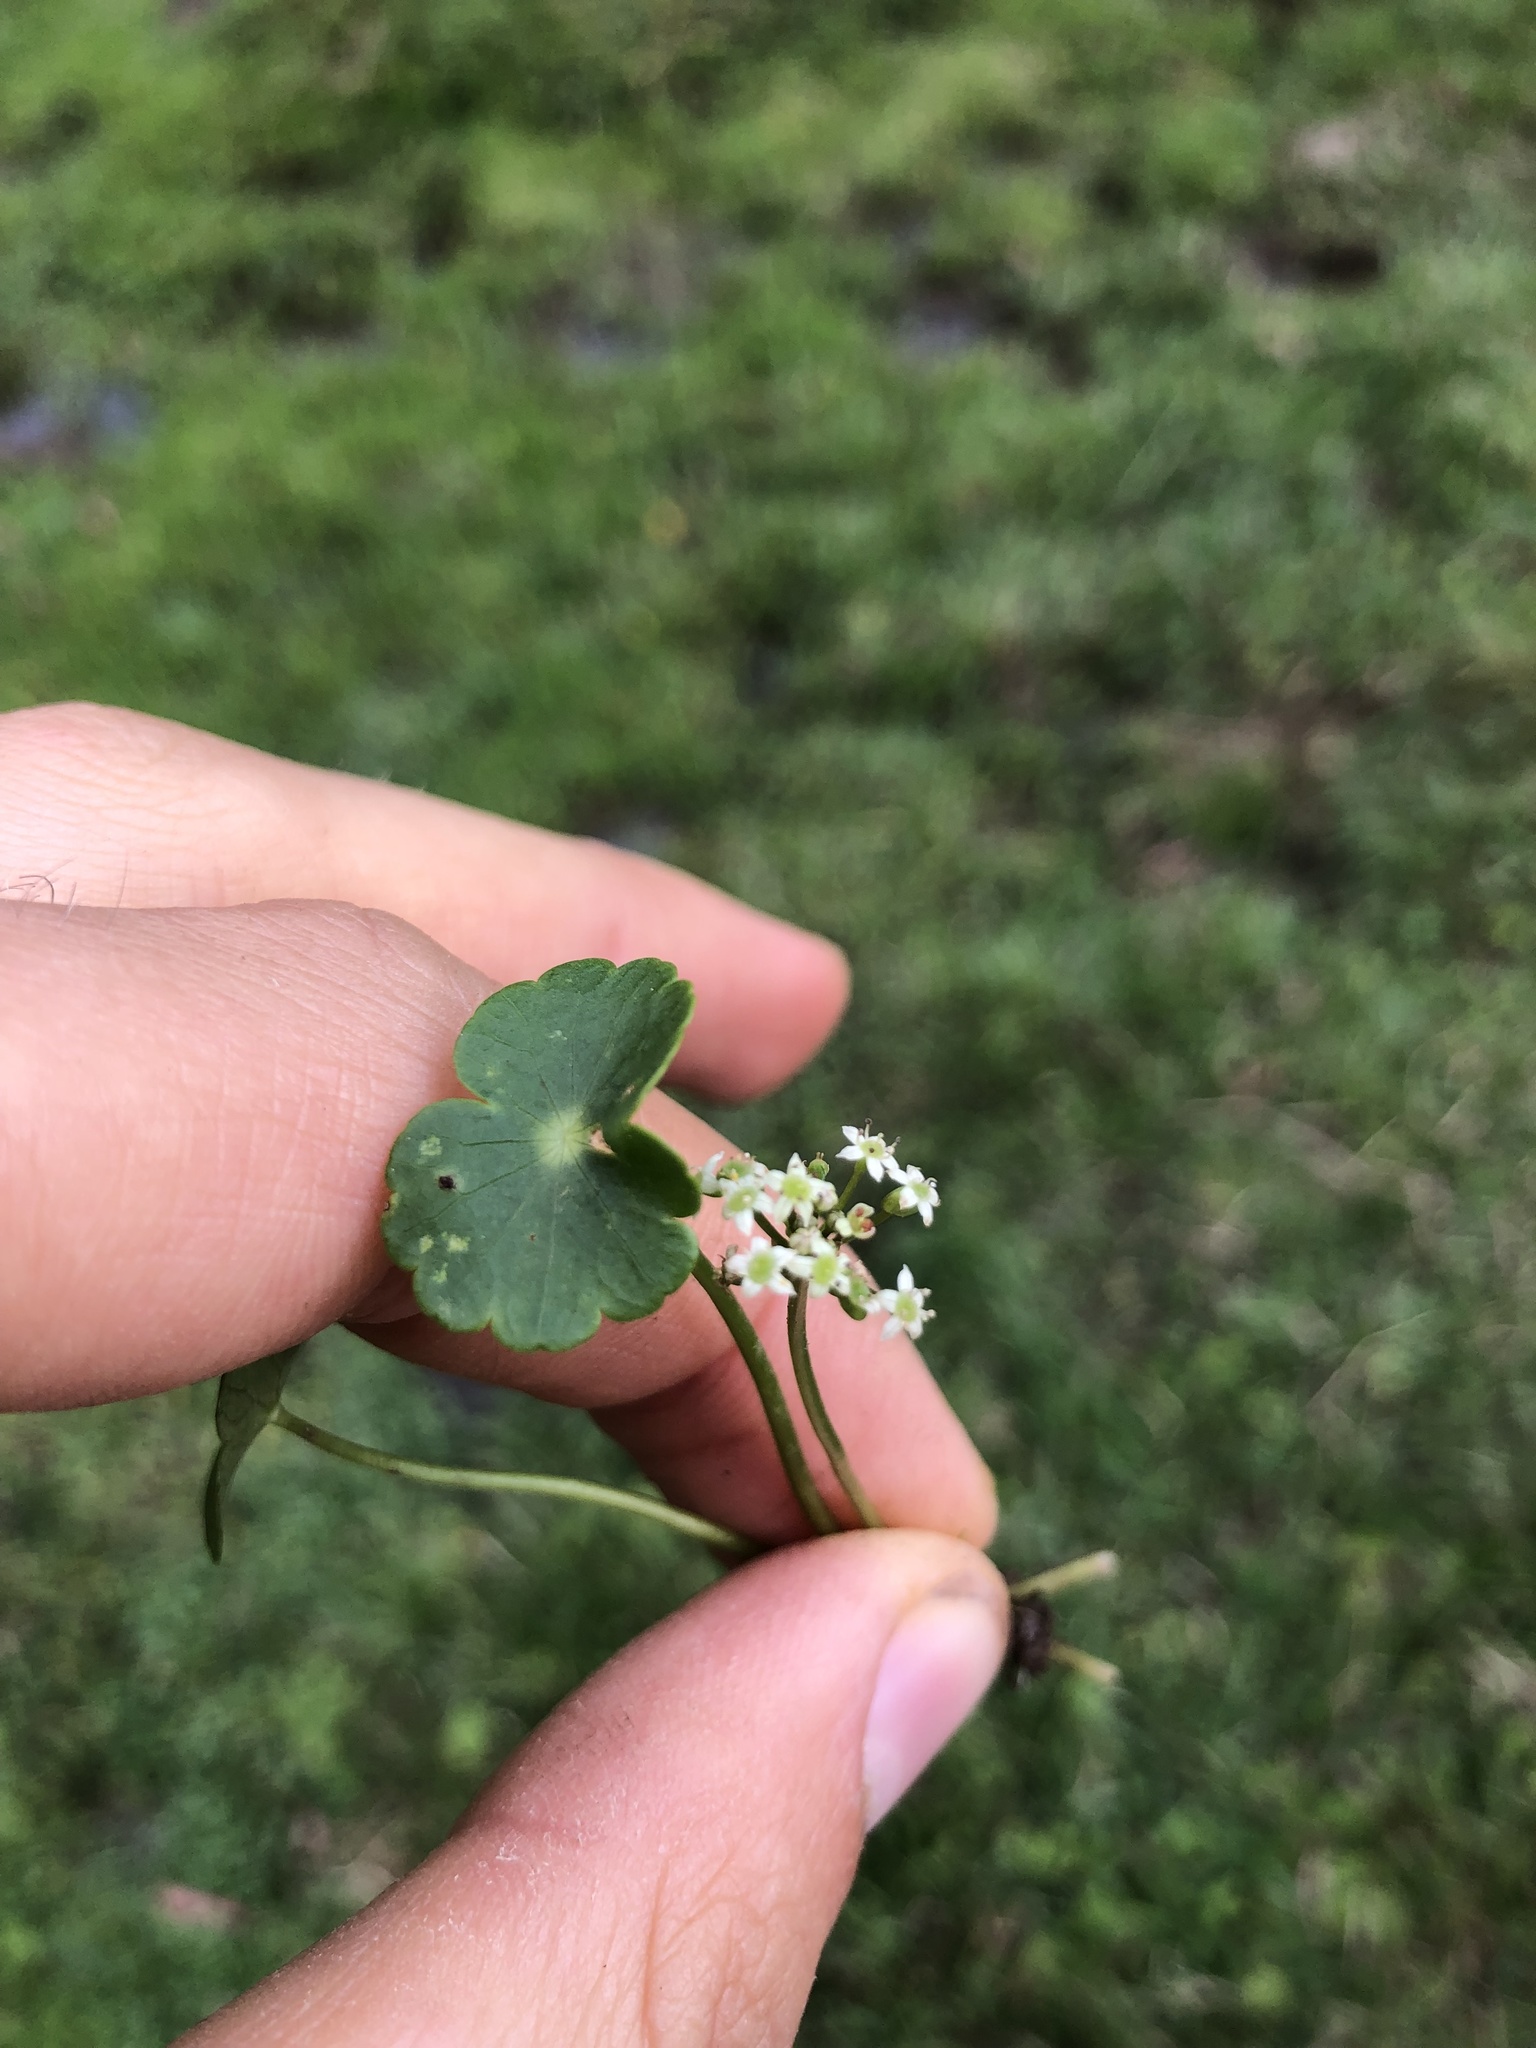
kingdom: Plantae
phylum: Tracheophyta
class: Magnoliopsida
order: Apiales
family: Araliaceae
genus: Hydrocotyle
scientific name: Hydrocotyle umbellata
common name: Water pennywort
